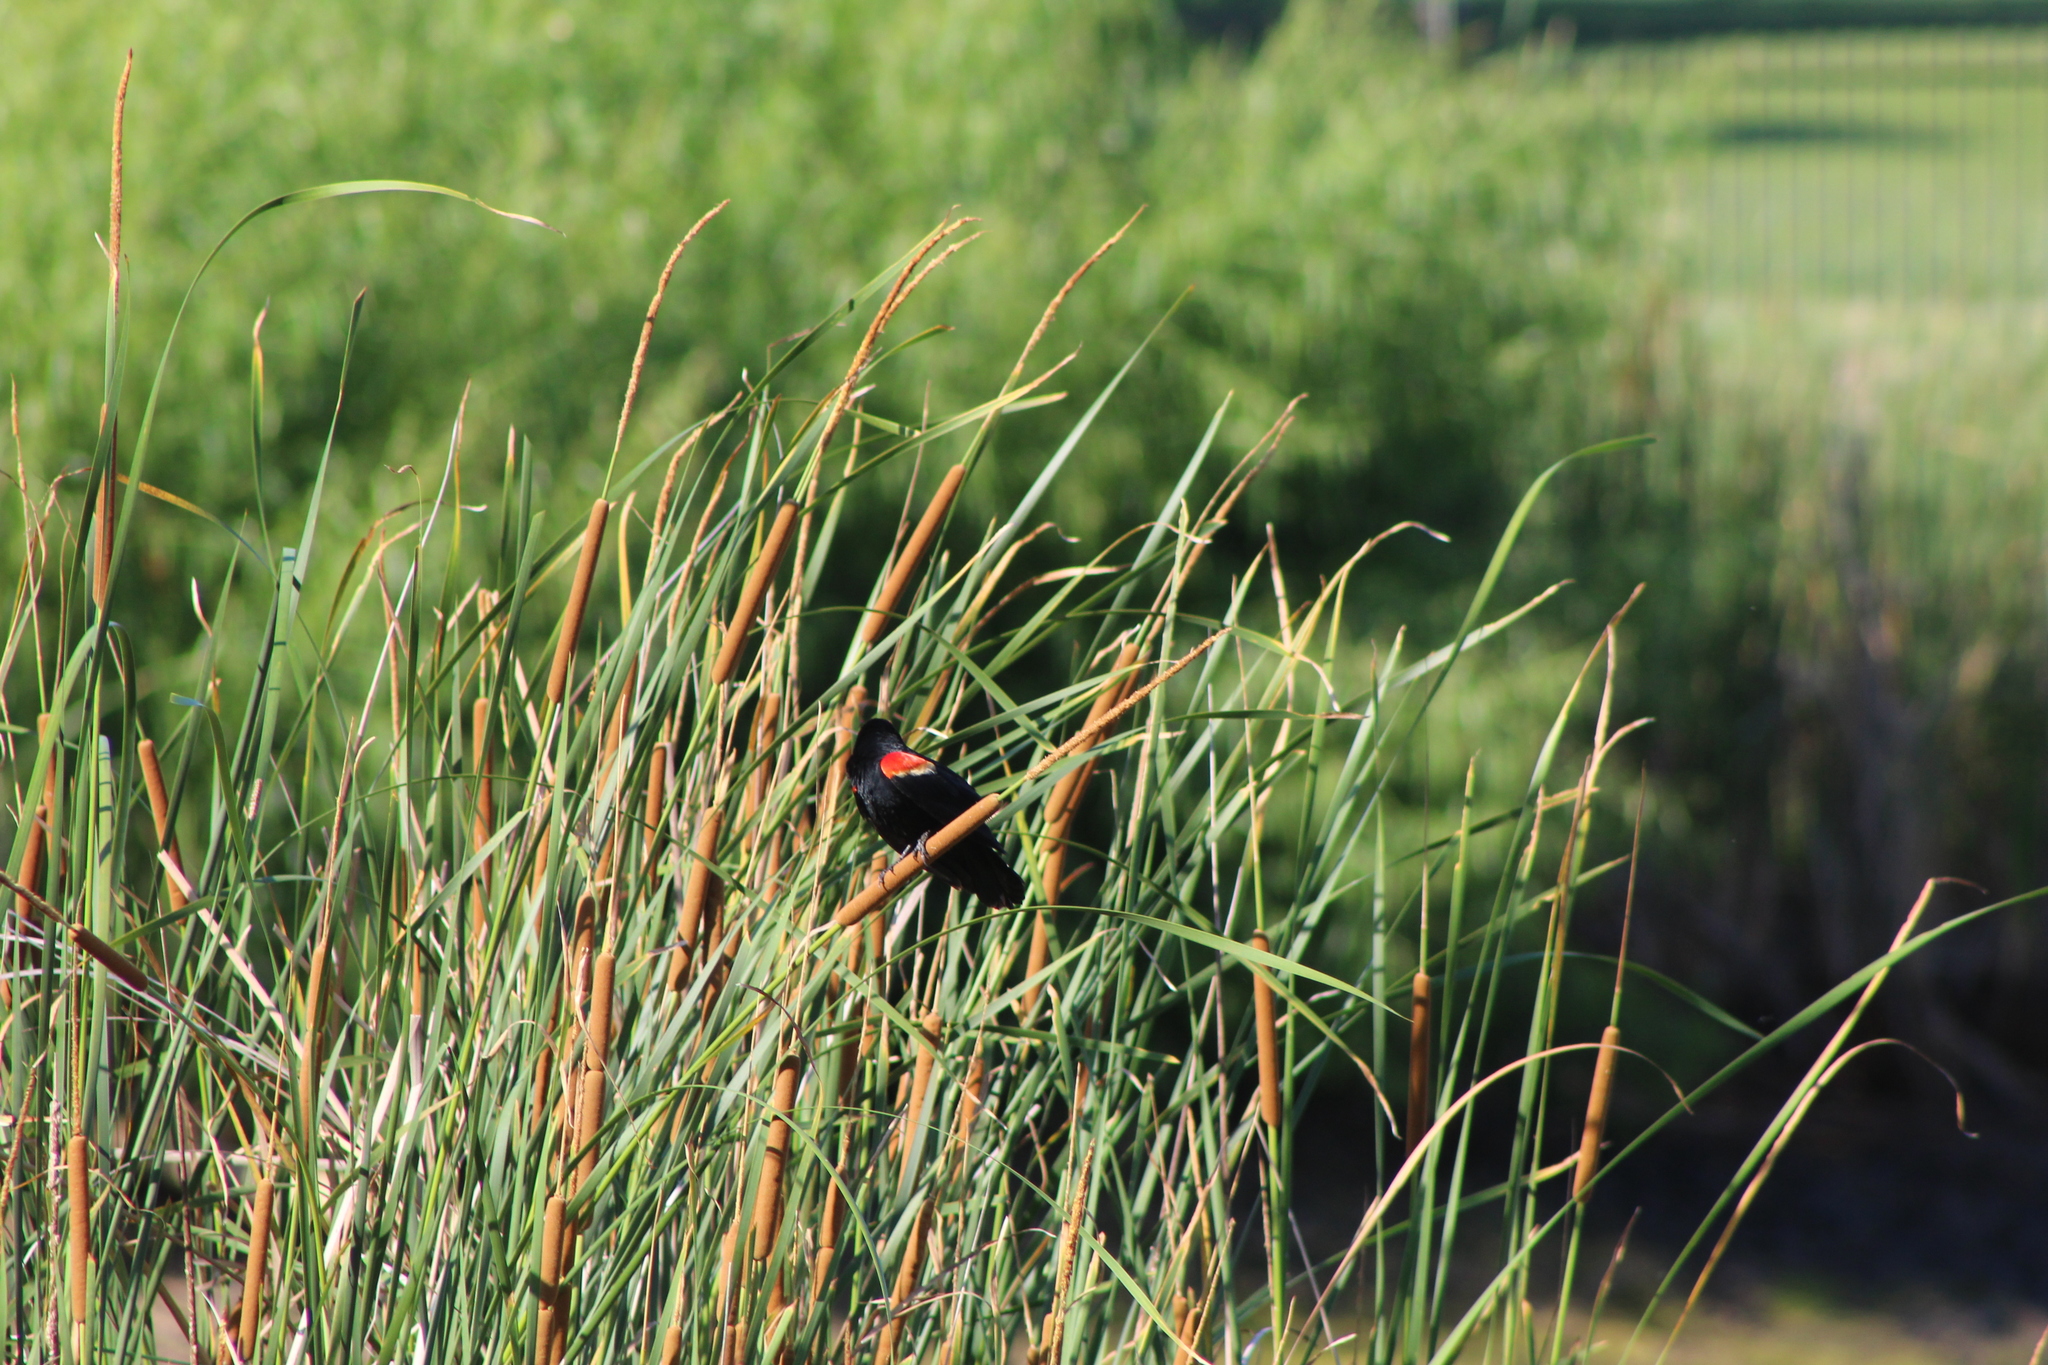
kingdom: Animalia
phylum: Chordata
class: Aves
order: Passeriformes
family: Icteridae
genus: Agelaius
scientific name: Agelaius phoeniceus
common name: Red-winged blackbird
